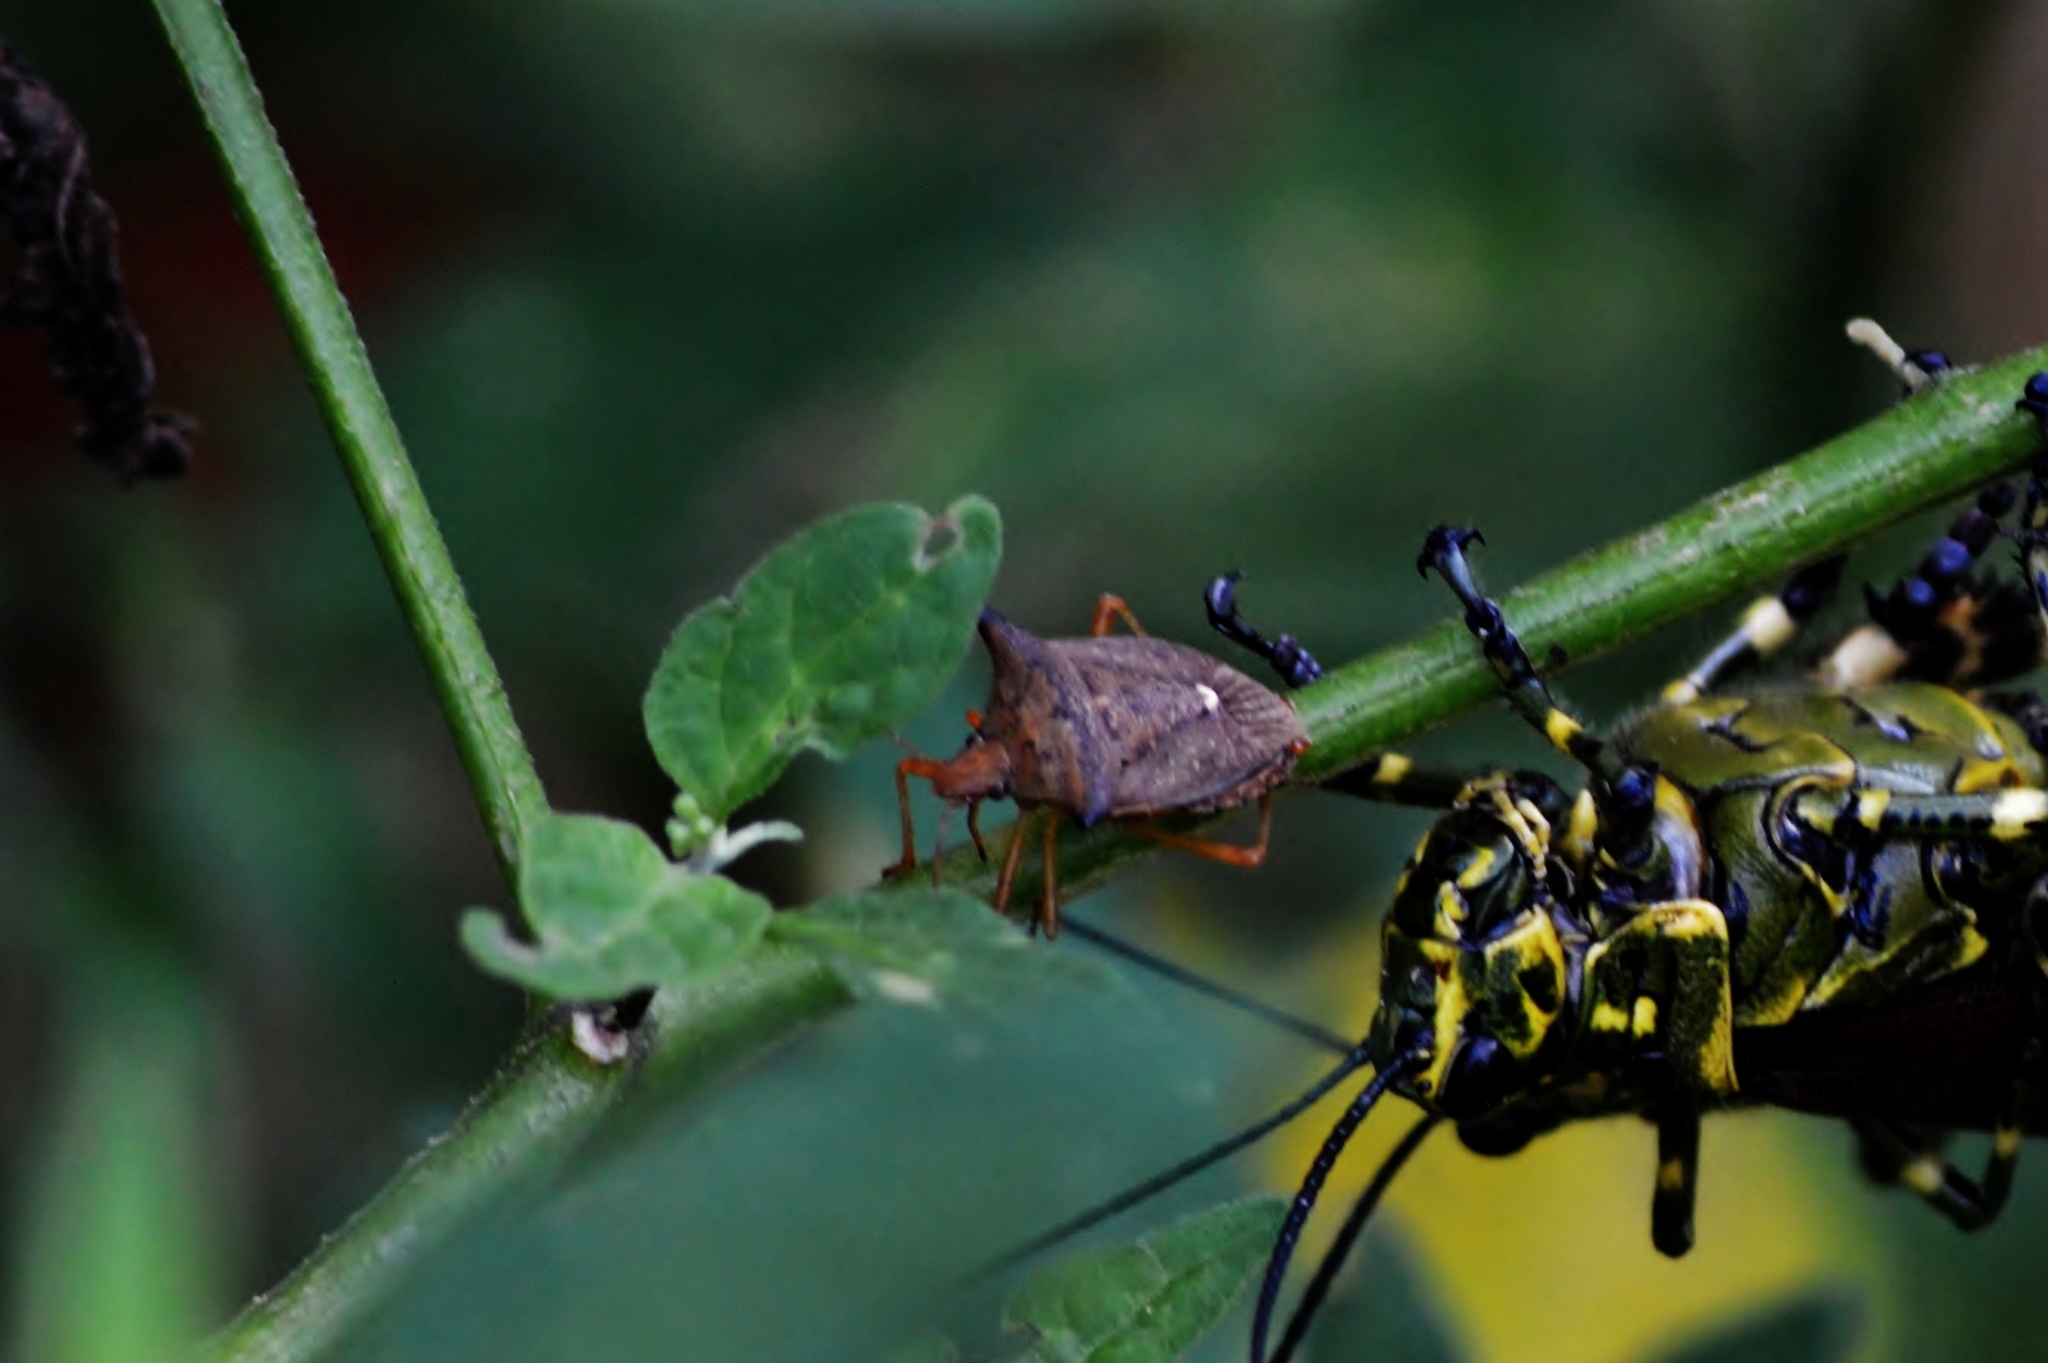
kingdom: Animalia
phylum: Arthropoda
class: Insecta
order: Hemiptera
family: Pentatomidae
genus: Euschistus
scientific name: Euschistus heros
